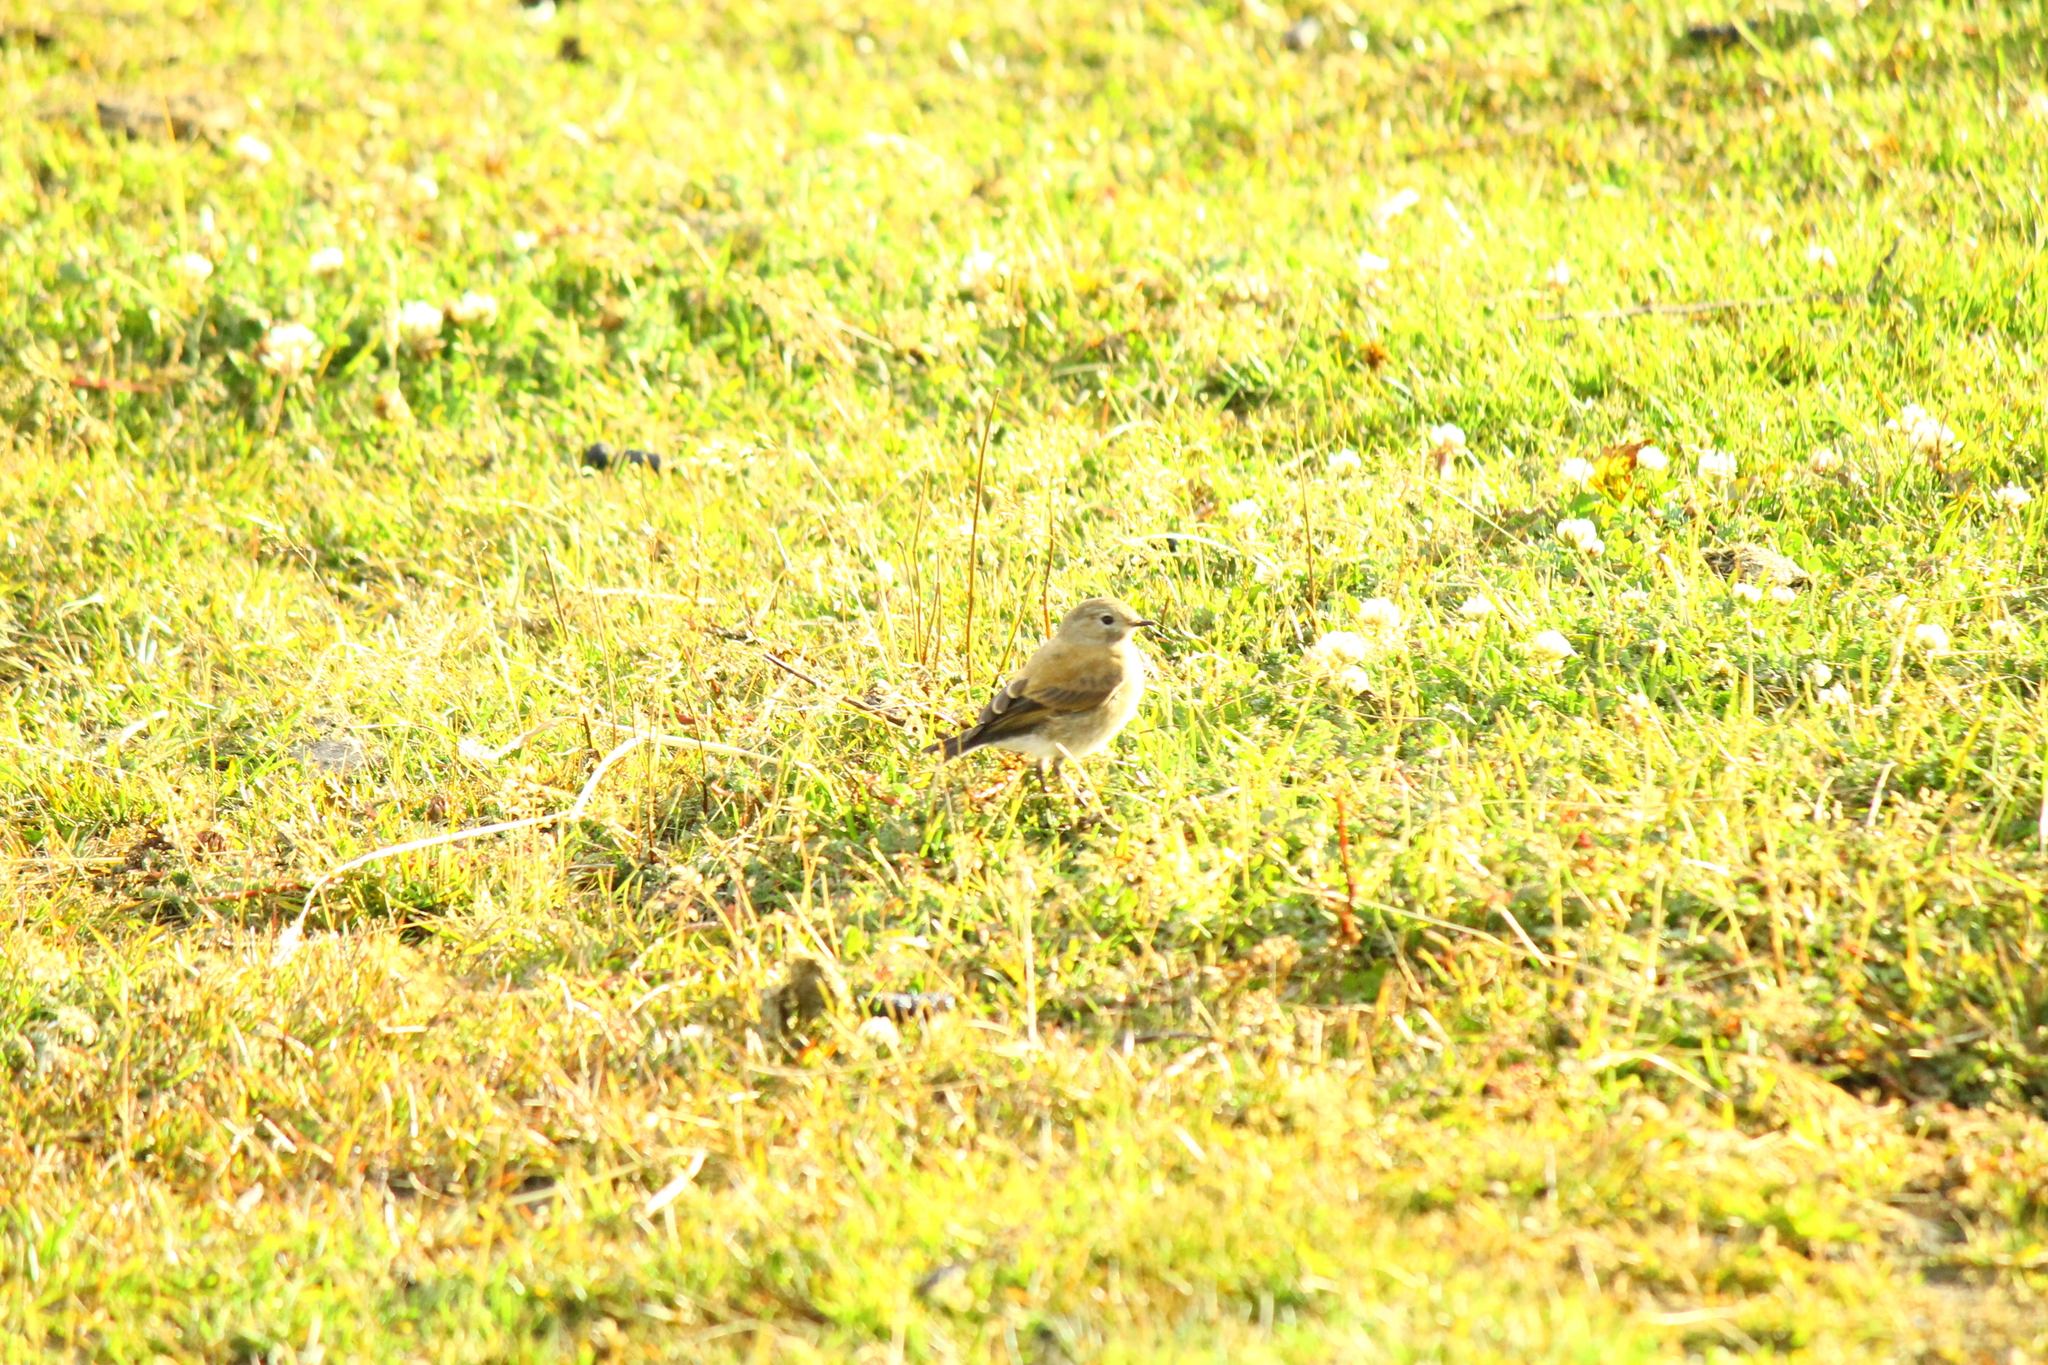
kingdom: Animalia
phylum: Chordata
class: Aves
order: Passeriformes
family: Tyrannidae
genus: Lessonia
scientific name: Lessonia rufa
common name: Austral negrito
